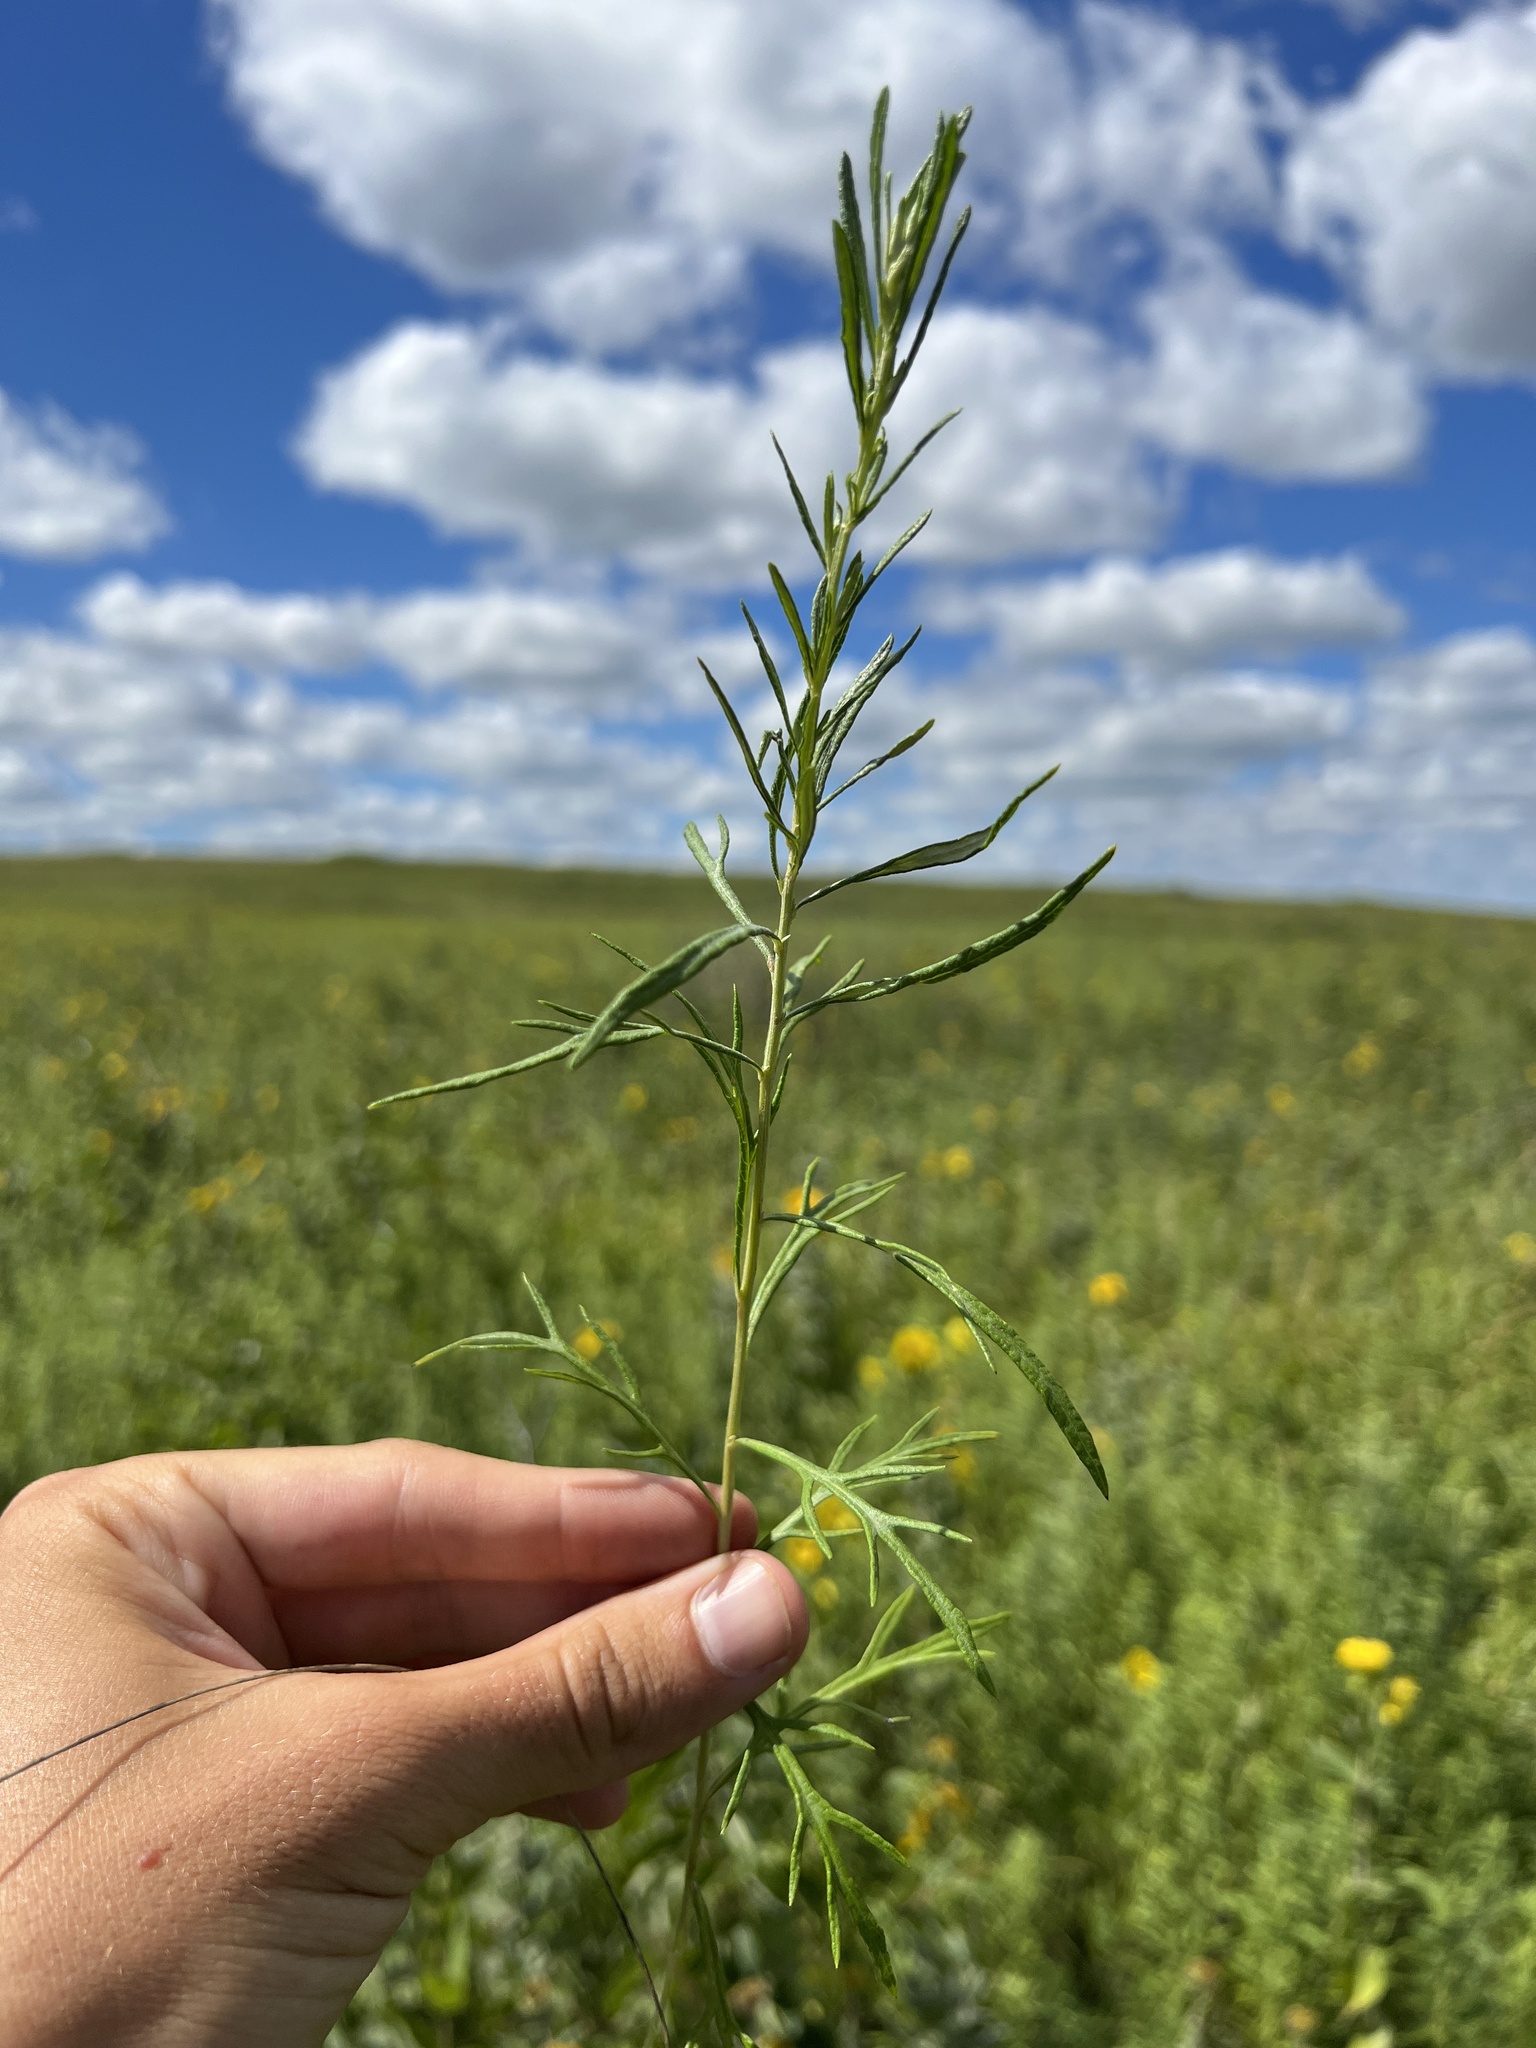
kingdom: Plantae
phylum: Tracheophyta
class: Magnoliopsida
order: Asterales
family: Asteraceae
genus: Artemisia
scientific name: Artemisia ludoviciana
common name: Western mugwort
